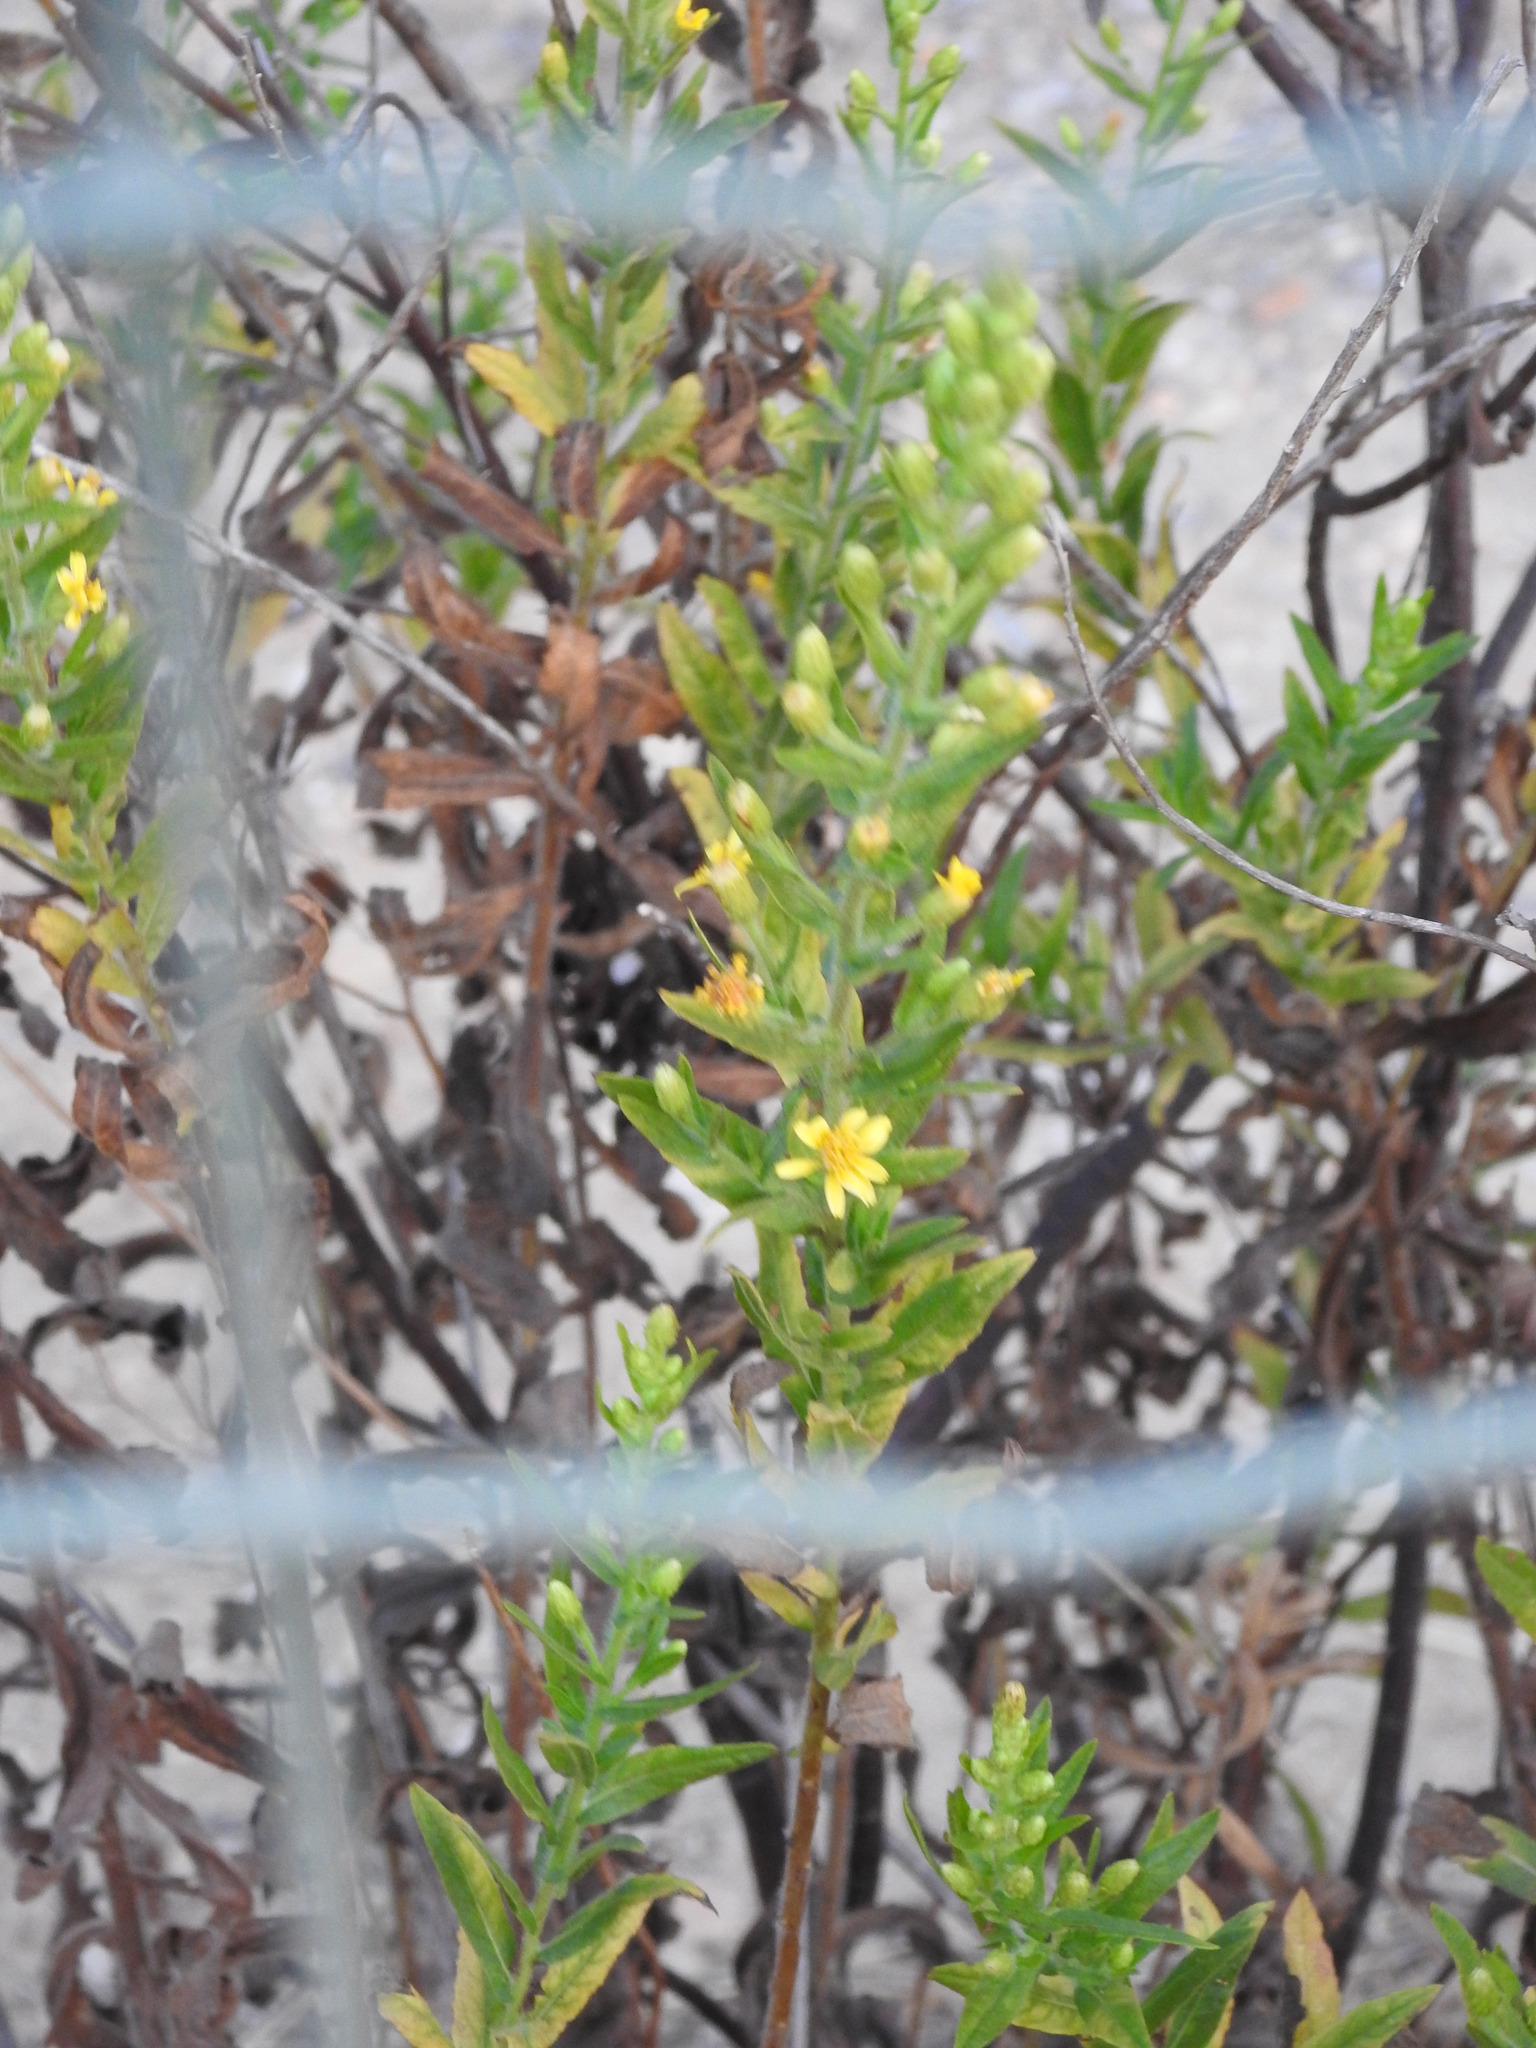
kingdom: Plantae
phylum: Tracheophyta
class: Magnoliopsida
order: Asterales
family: Asteraceae
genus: Dittrichia
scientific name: Dittrichia viscosa
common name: Woody fleabane
